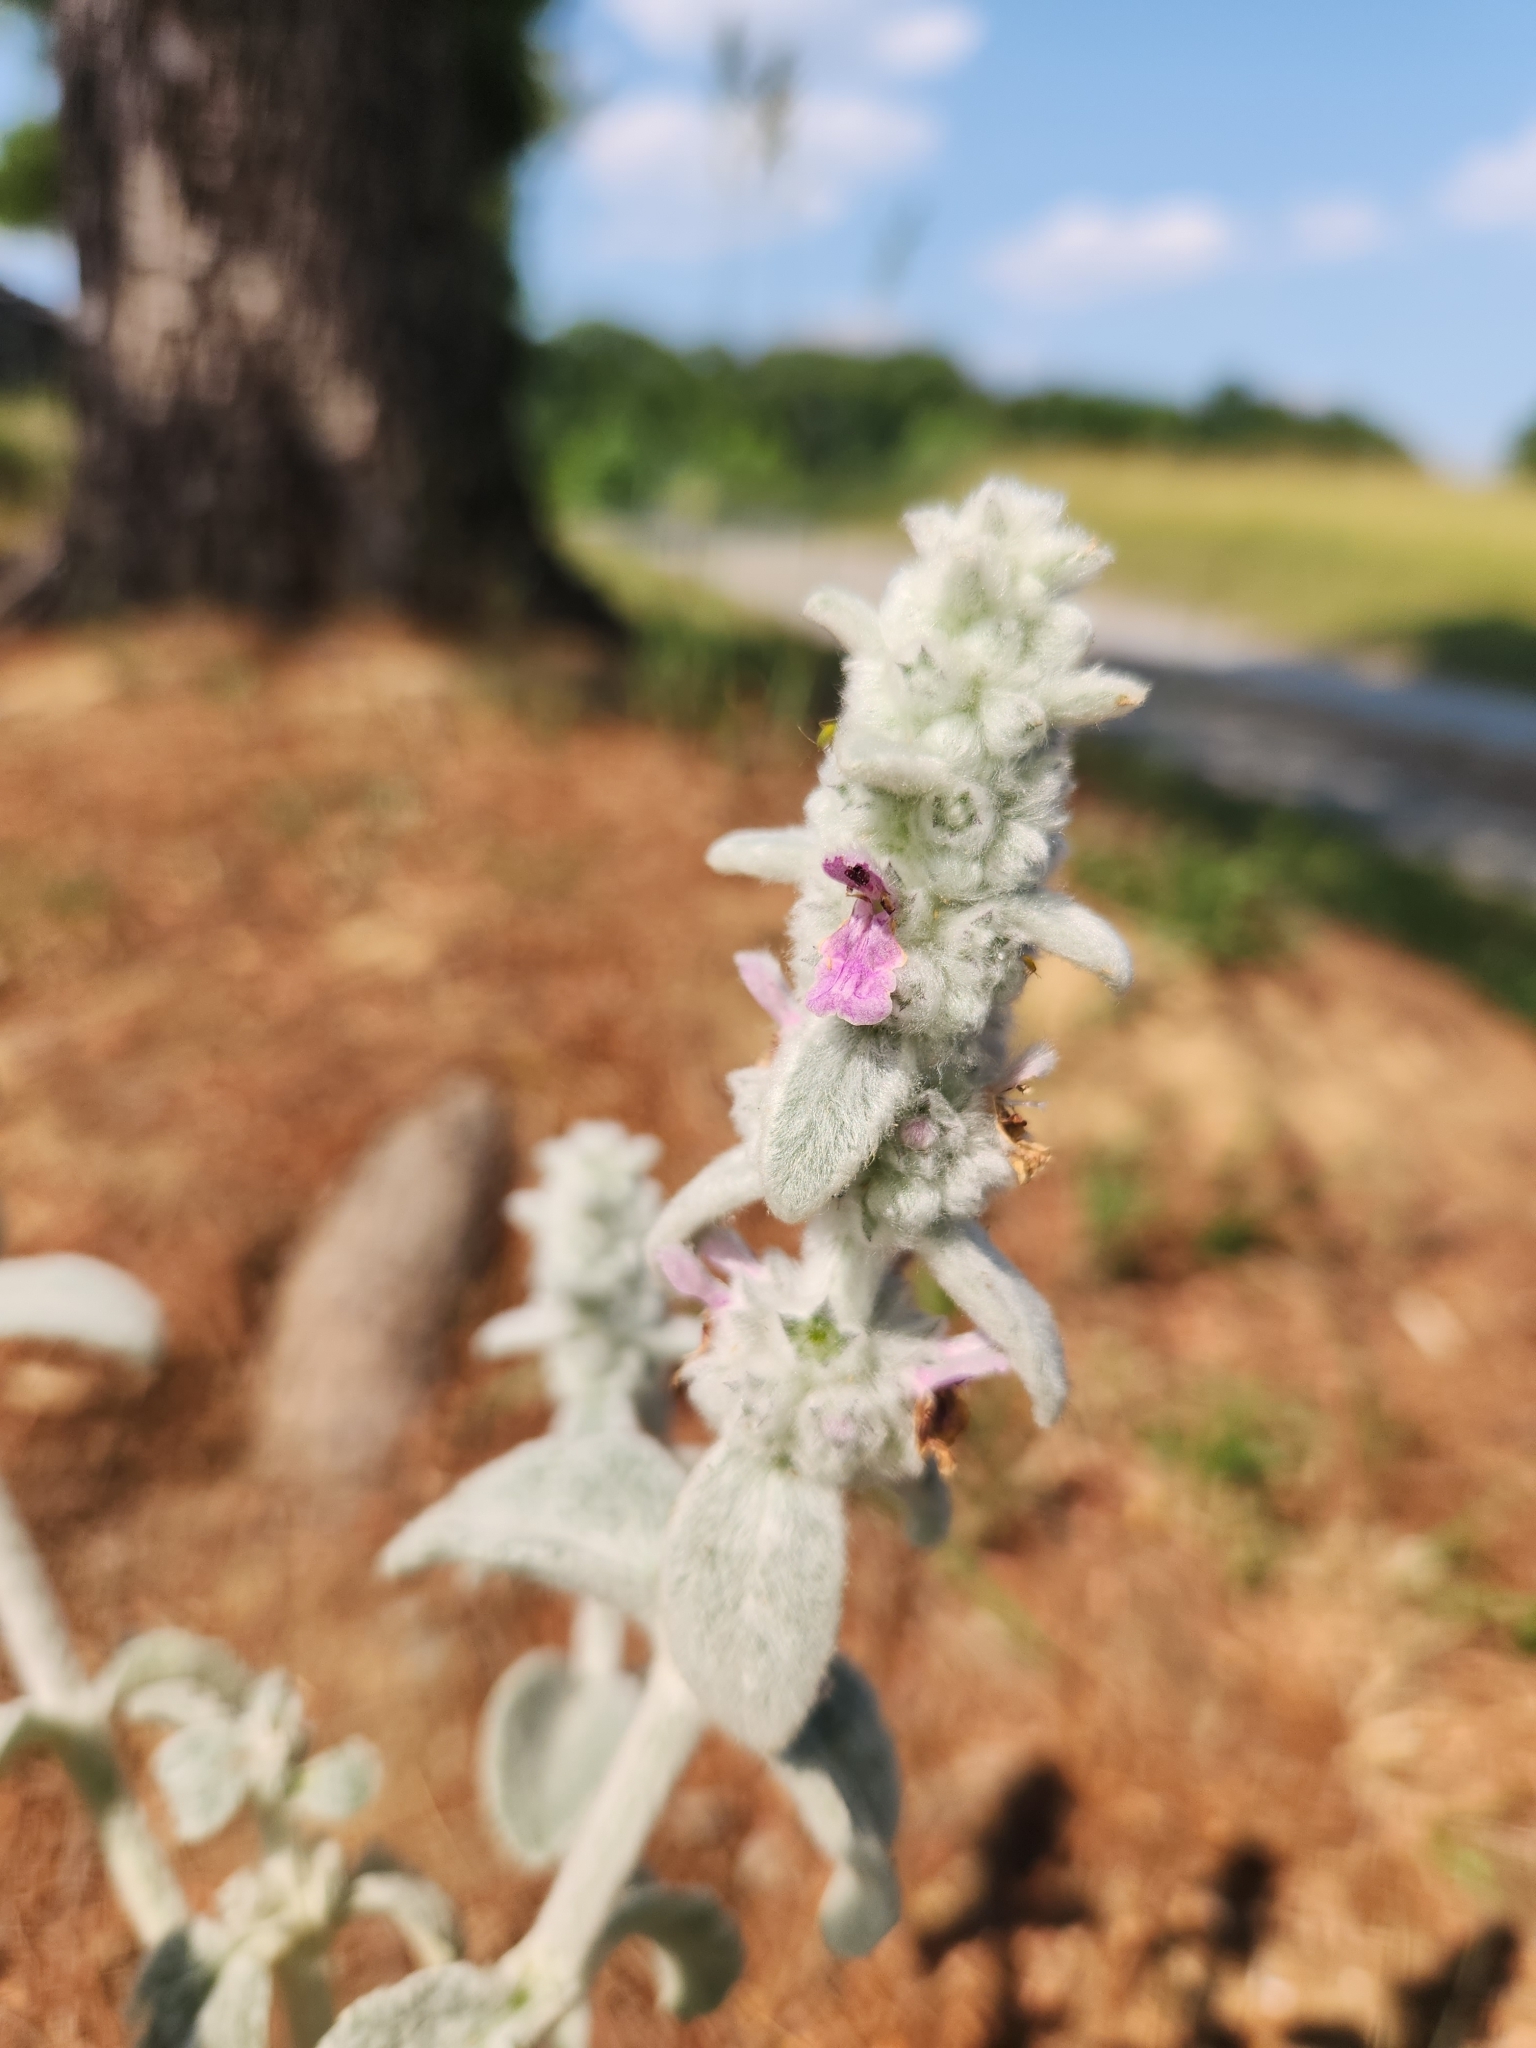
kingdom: Plantae
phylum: Tracheophyta
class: Magnoliopsida
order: Lamiales
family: Lamiaceae
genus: Stachys
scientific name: Stachys byzantina
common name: Lamb's-ear
